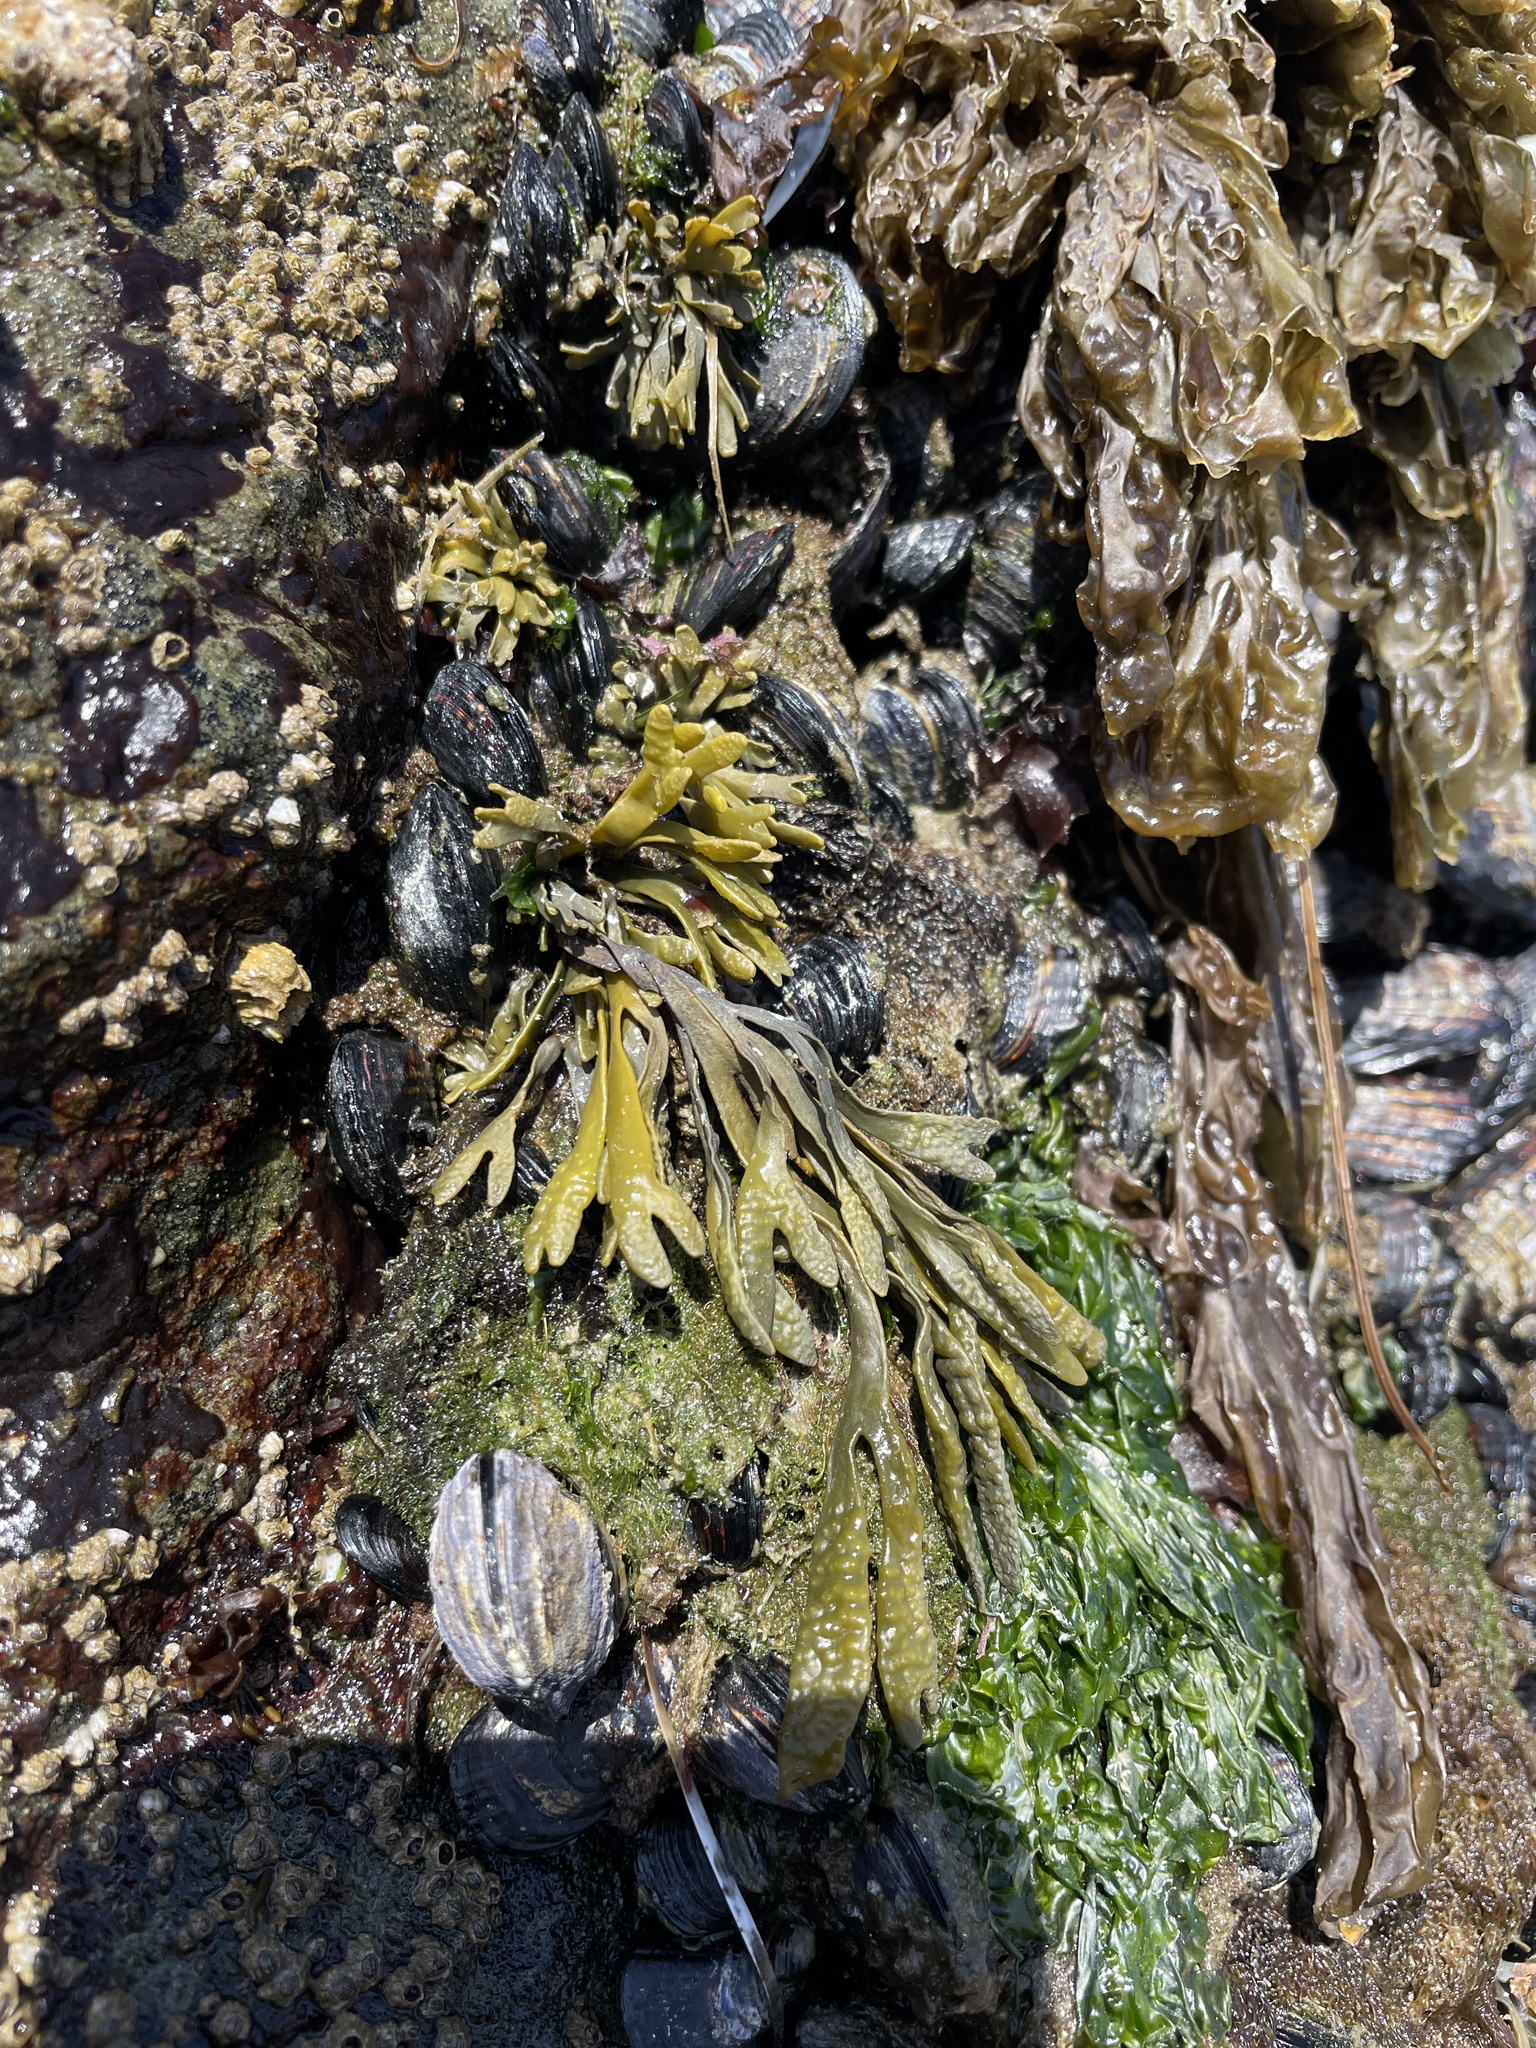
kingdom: Chromista
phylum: Ochrophyta
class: Phaeophyceae
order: Fucales
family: Fucaceae
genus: Pelvetiopsis
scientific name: Pelvetiopsis limitata
